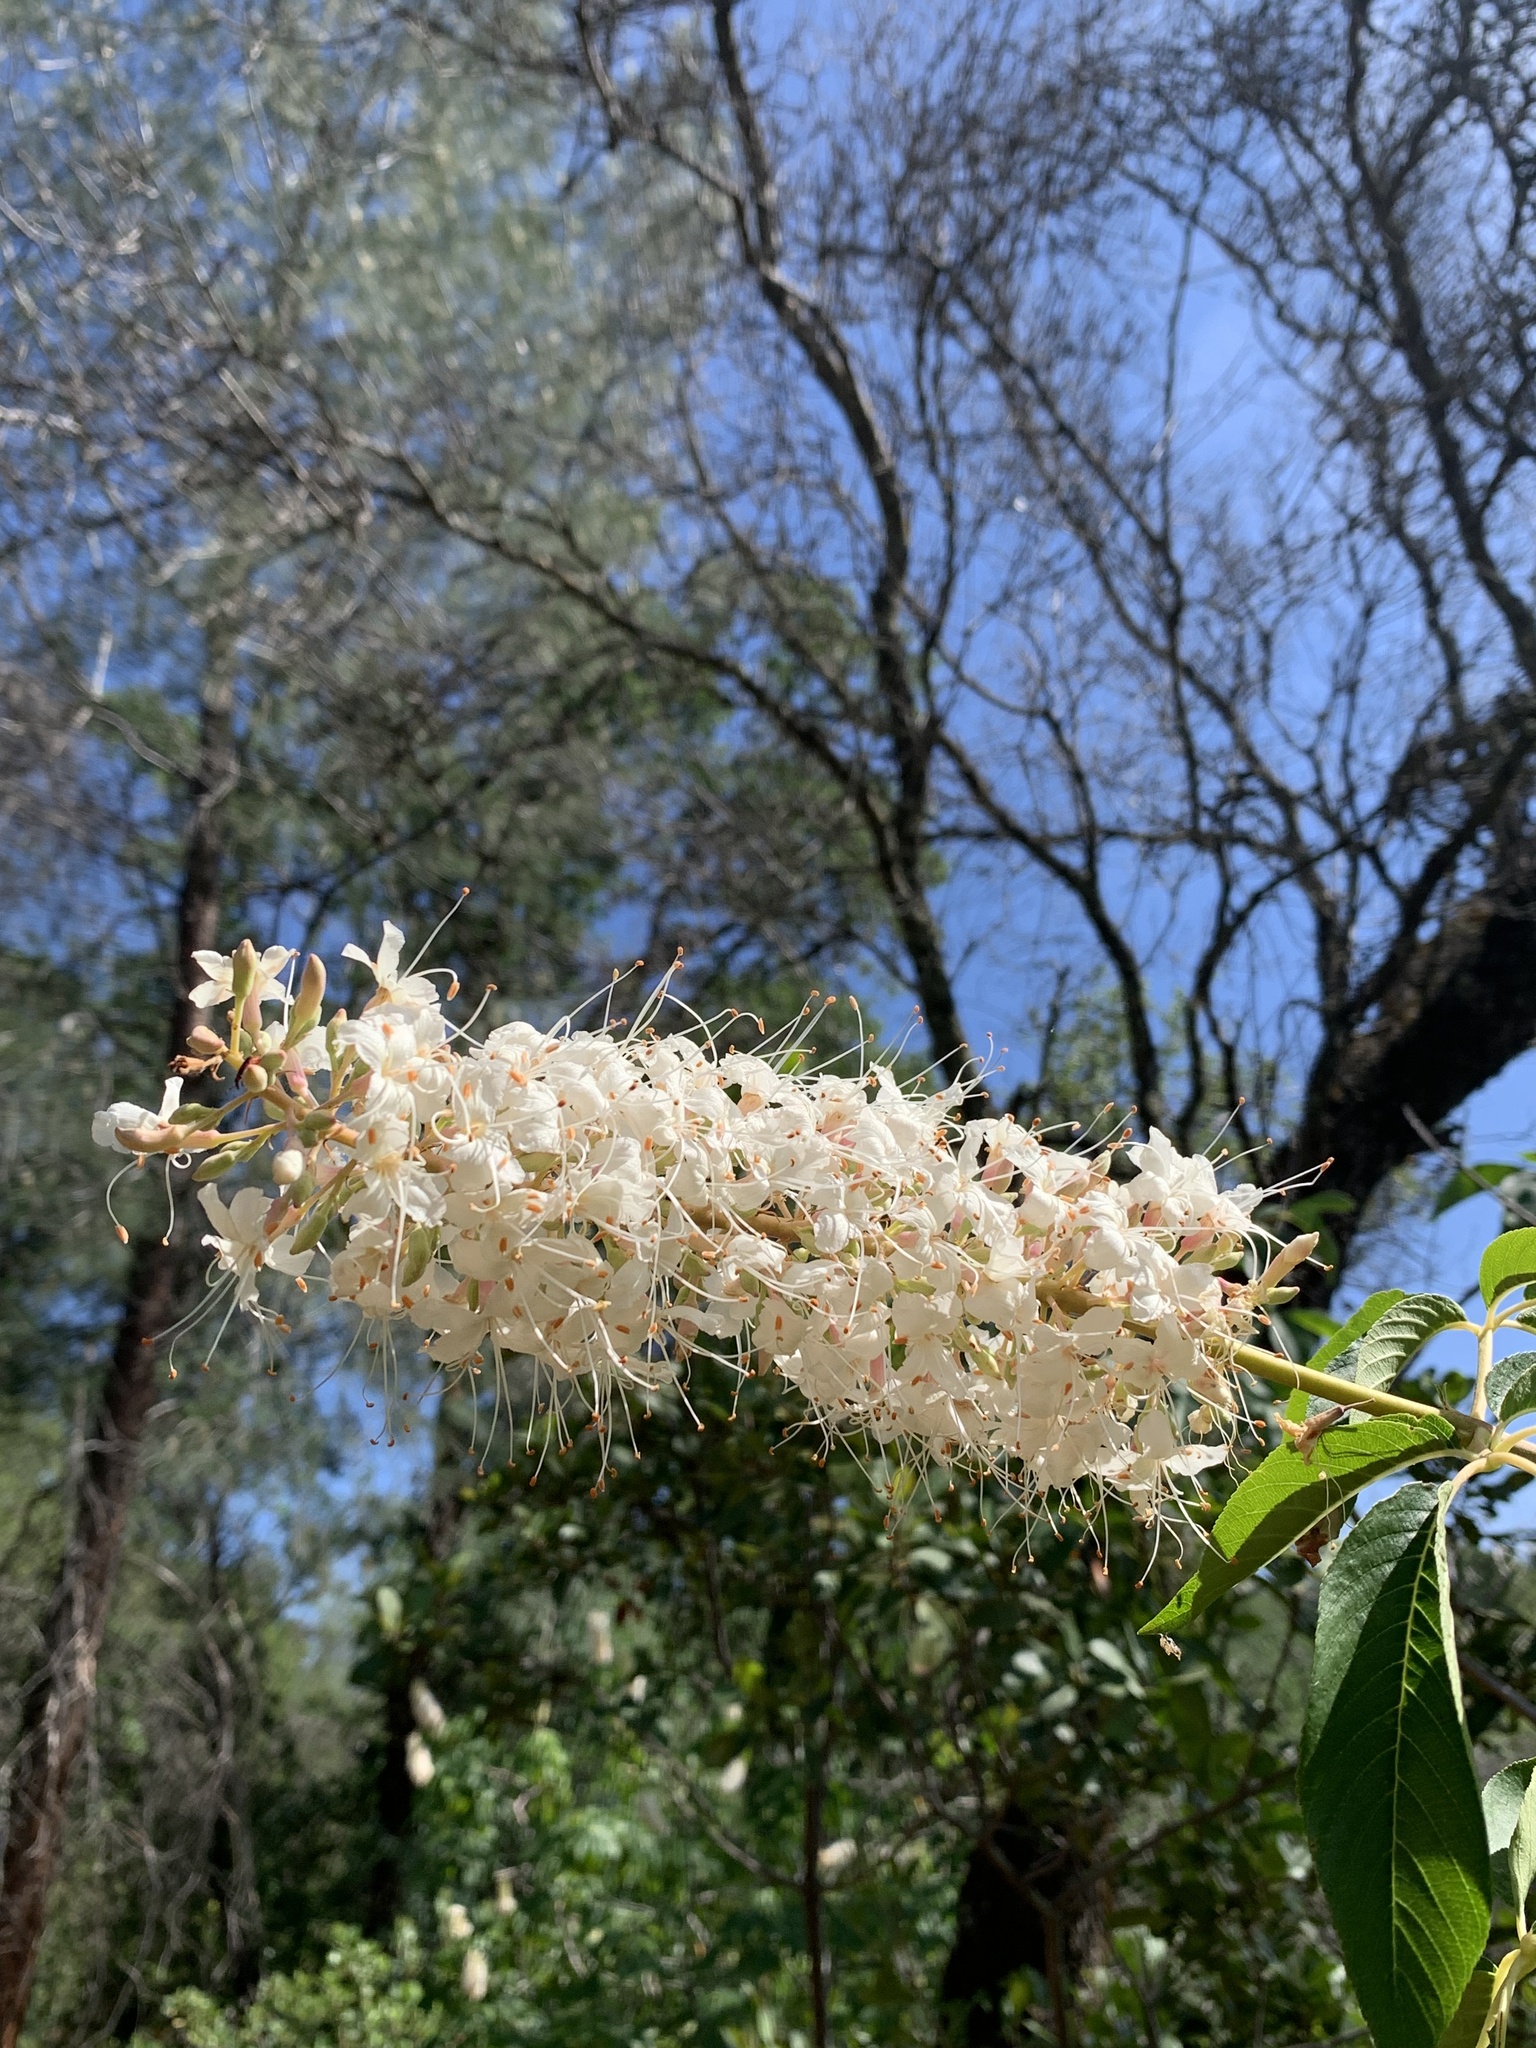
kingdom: Plantae
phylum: Tracheophyta
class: Magnoliopsida
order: Sapindales
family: Sapindaceae
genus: Aesculus
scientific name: Aesculus californica
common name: California buckeye
